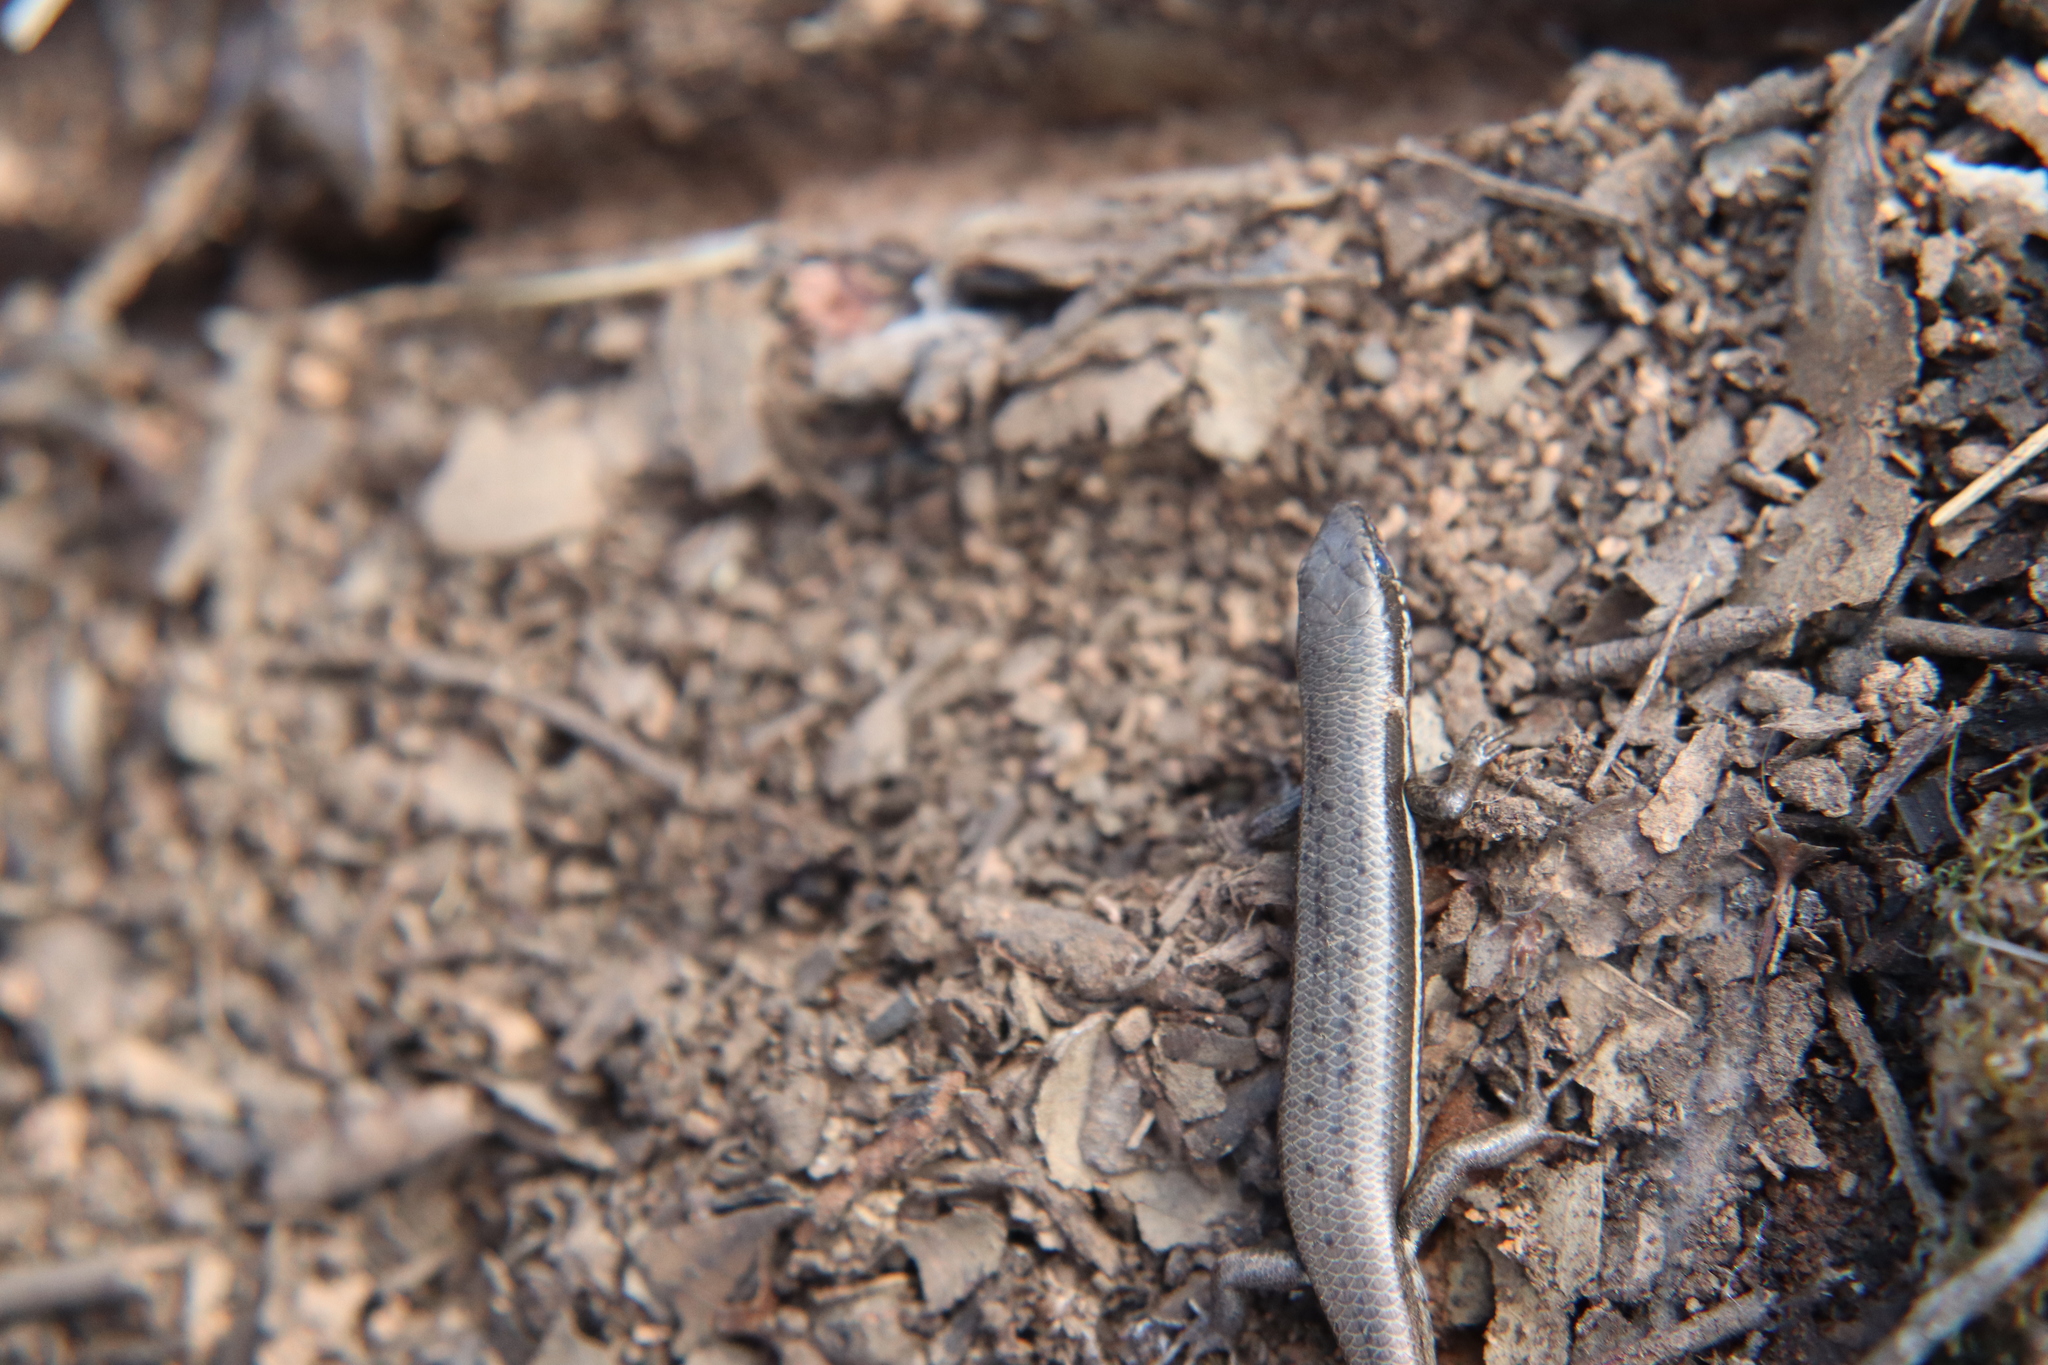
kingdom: Animalia
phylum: Chordata
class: Squamata
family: Scincidae
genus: Morethia
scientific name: Morethia boulengeri
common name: South-eastern morethia skink
